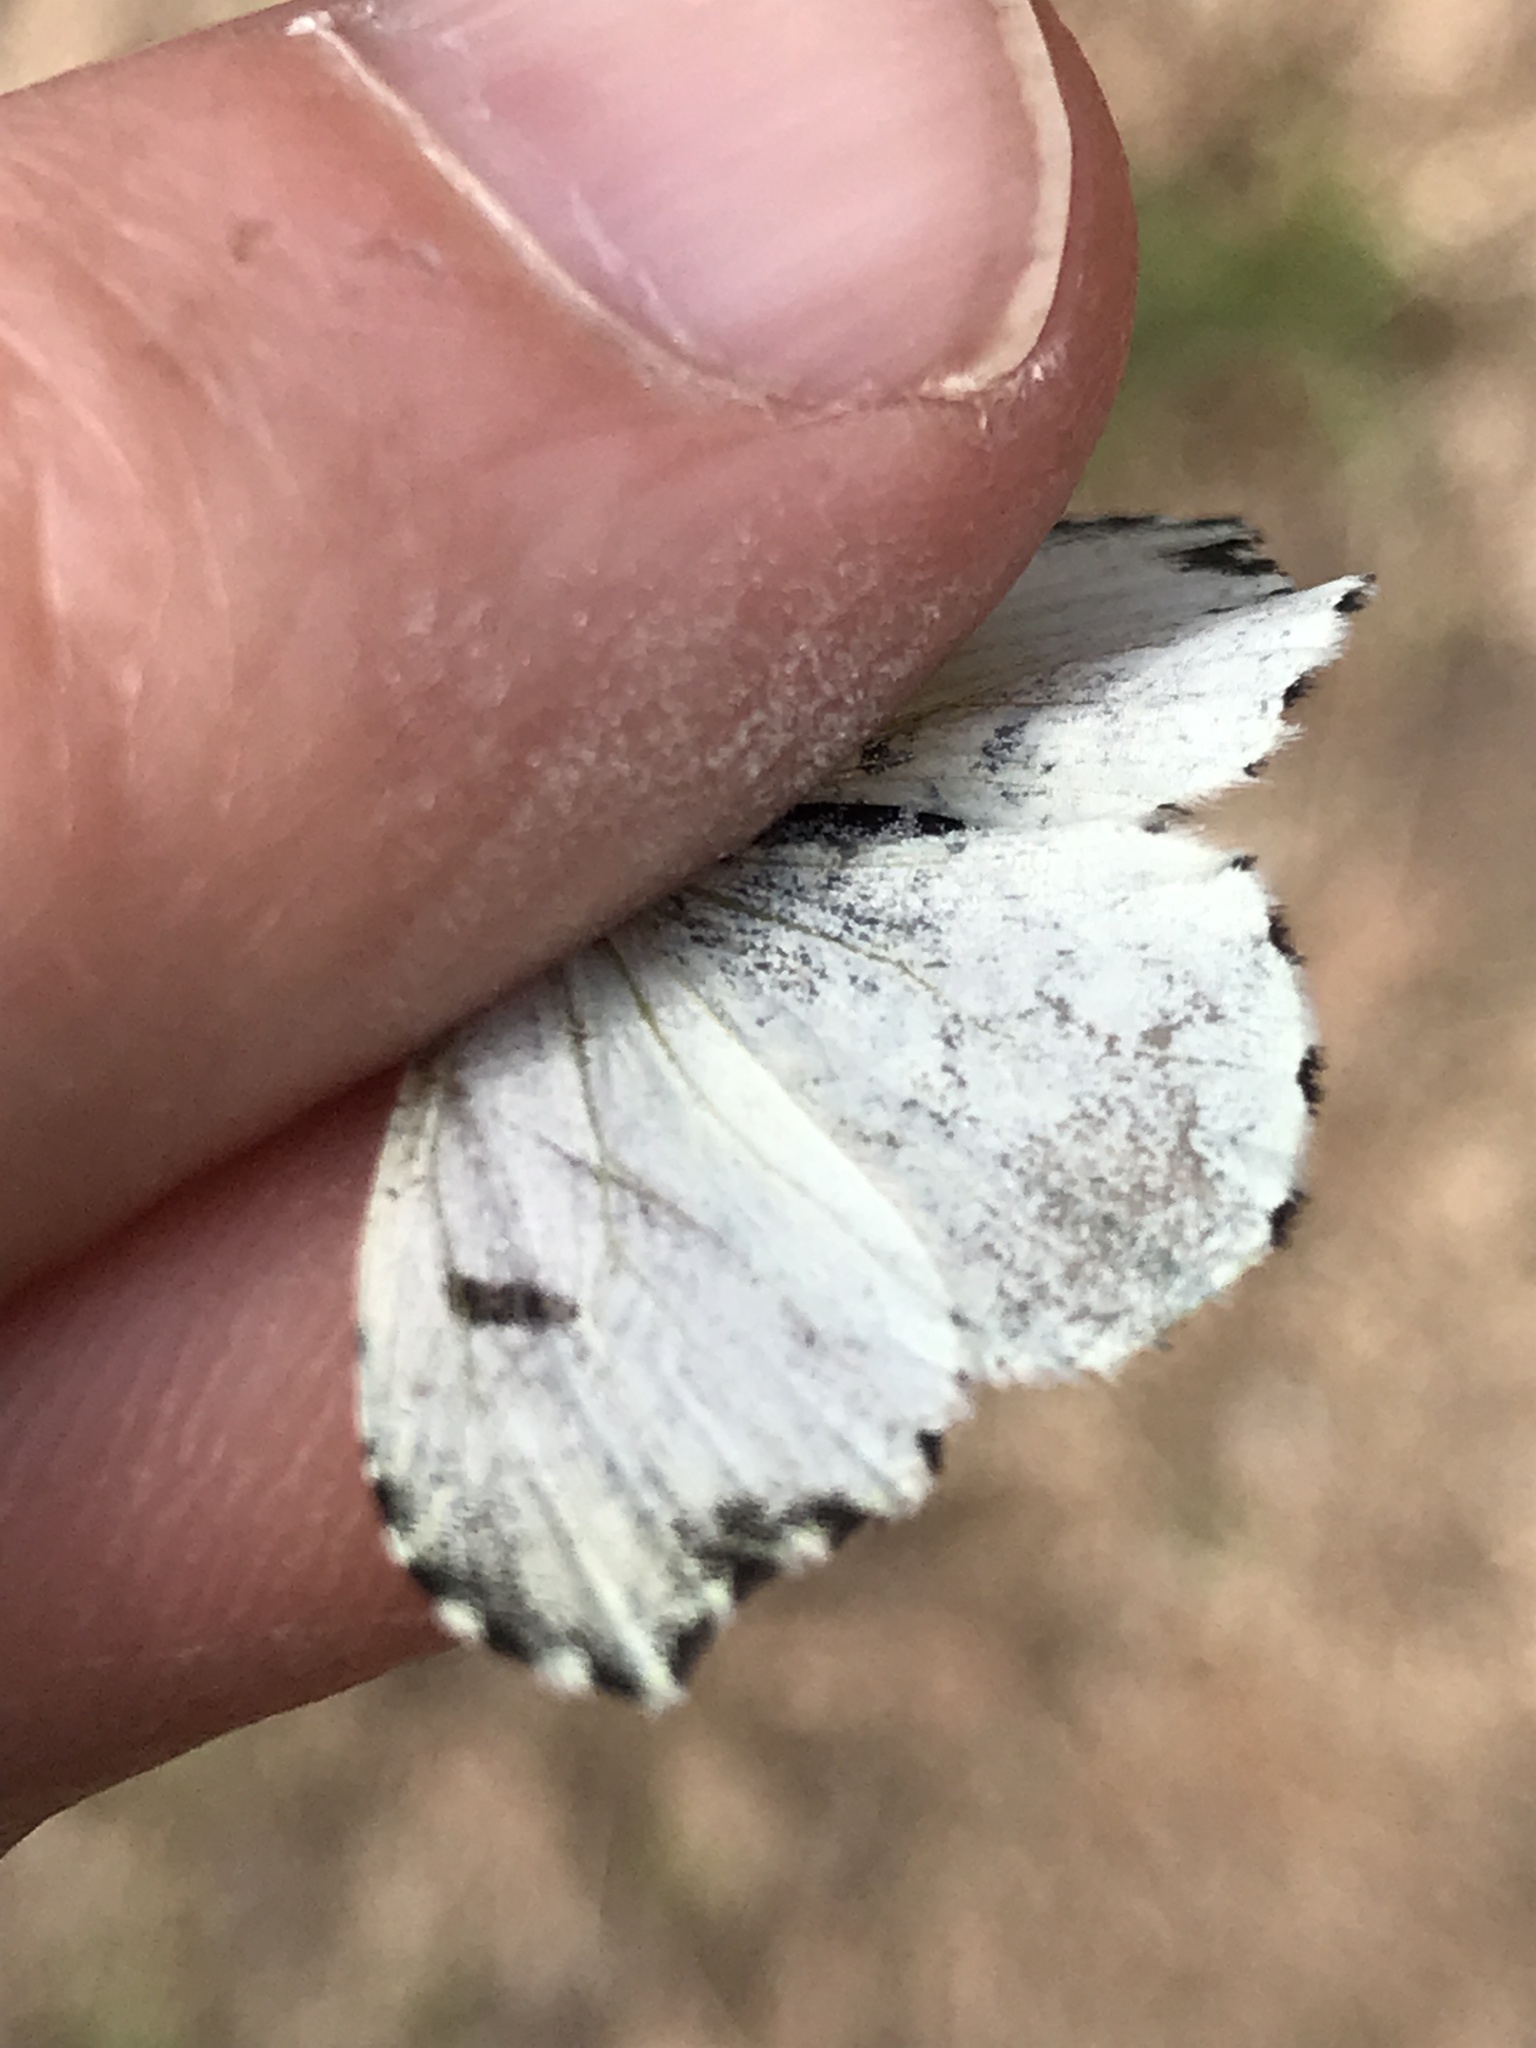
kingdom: Animalia
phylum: Arthropoda
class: Insecta
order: Lepidoptera
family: Pieridae
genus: Anthocharis
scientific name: Anthocharis midea
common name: Falcate orangetip
